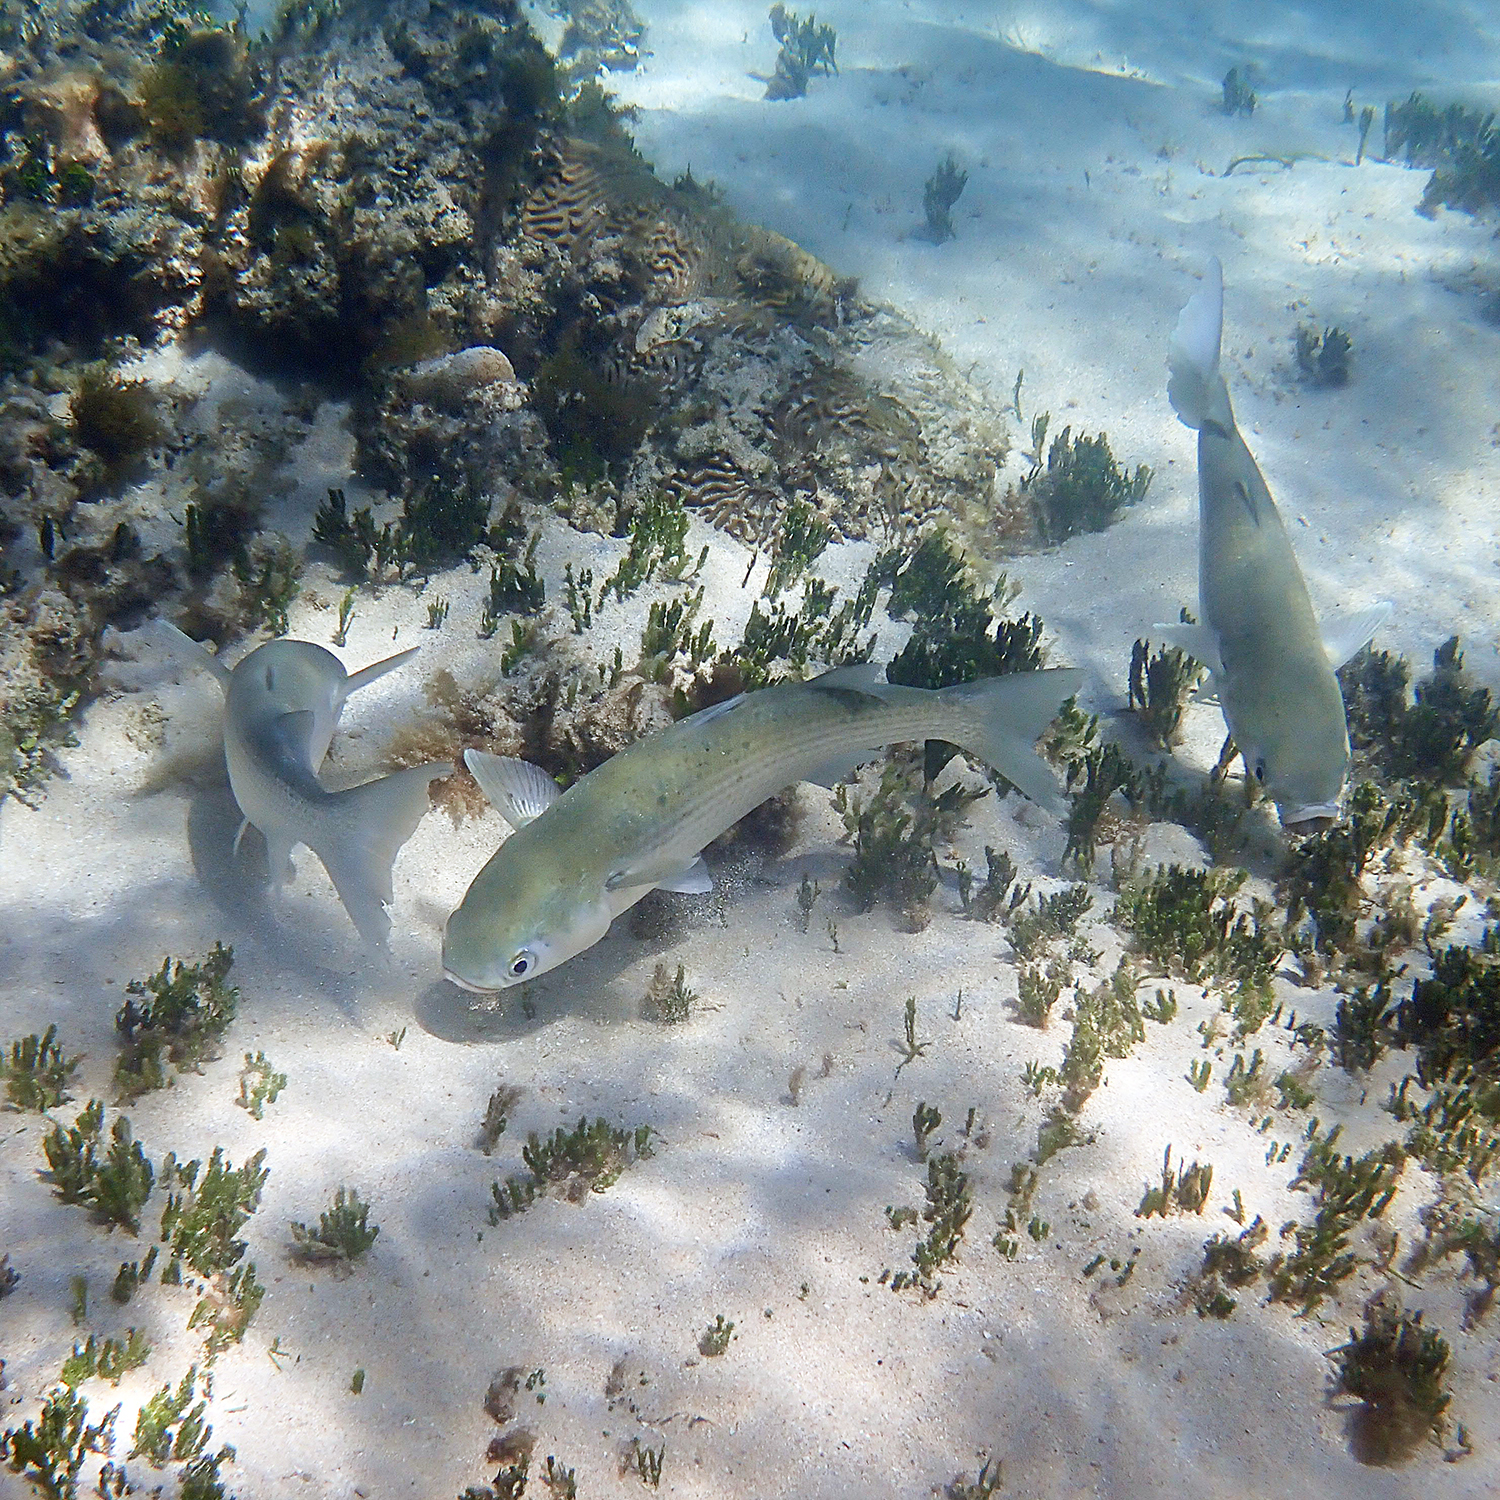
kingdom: Animalia
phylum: Chordata
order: Mugiliformes
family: Mugilidae
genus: Mugil
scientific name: Mugil cephalus
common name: Grey mullet
